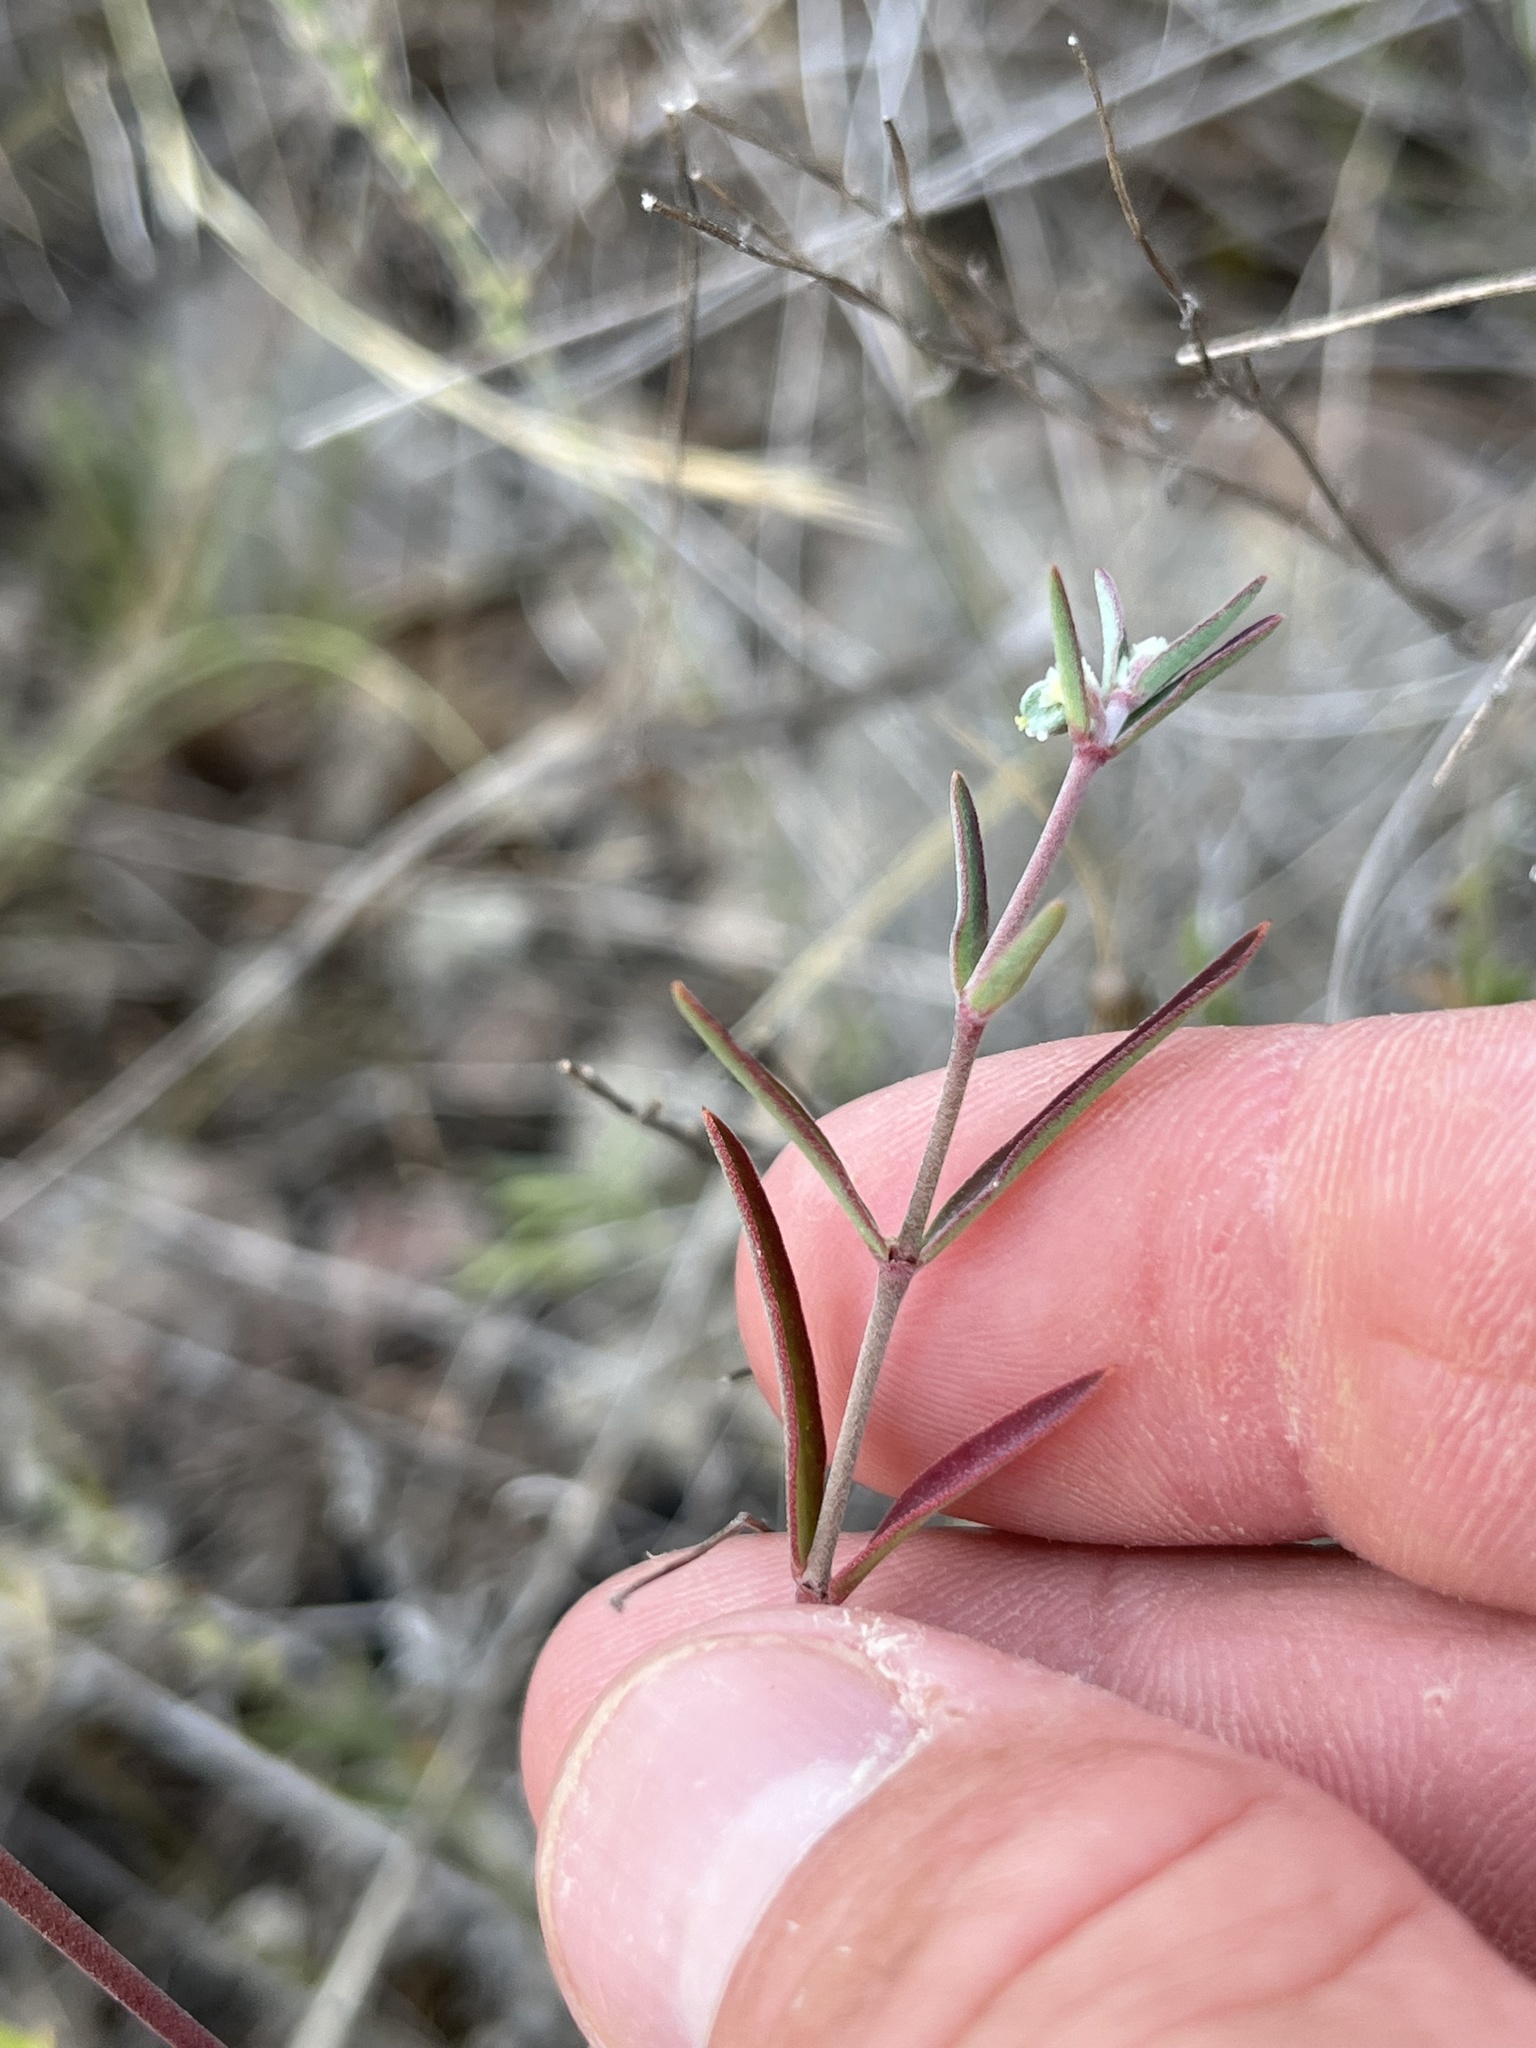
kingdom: Plantae
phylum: Tracheophyta
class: Magnoliopsida
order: Malpighiales
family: Euphorbiaceae
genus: Euphorbia
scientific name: Euphorbia angusta
